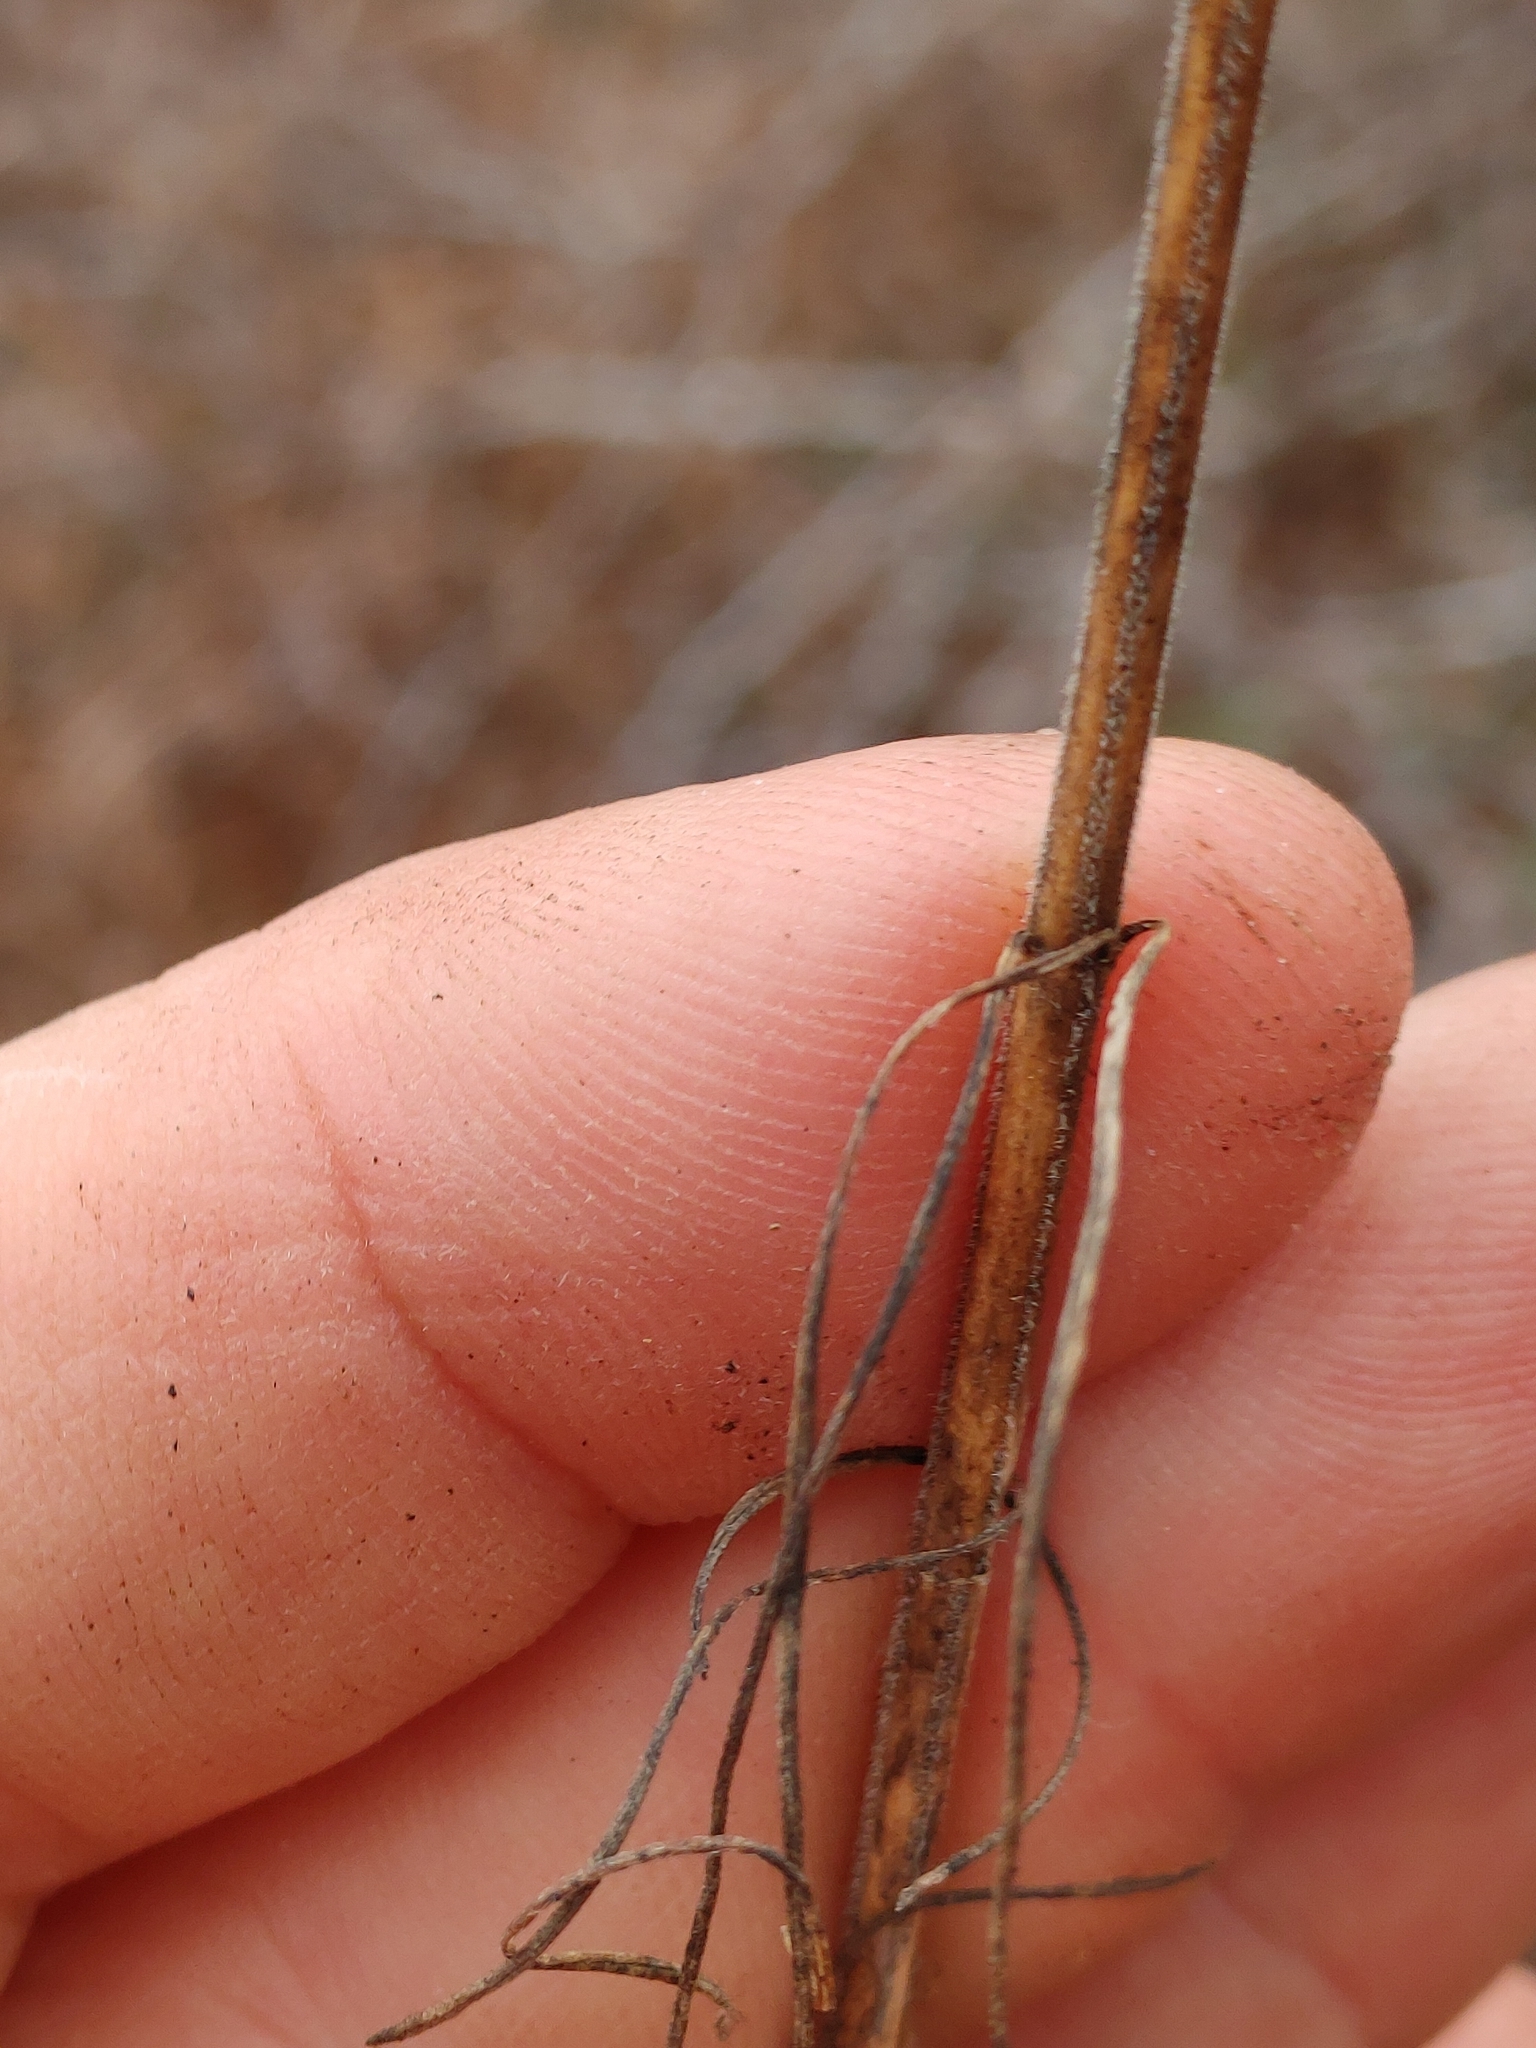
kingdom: Plantae
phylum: Tracheophyta
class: Magnoliopsida
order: Gentianales
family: Apocynaceae
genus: Asclepias
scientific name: Asclepias verticillata
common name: Eastern whorled milkweed
